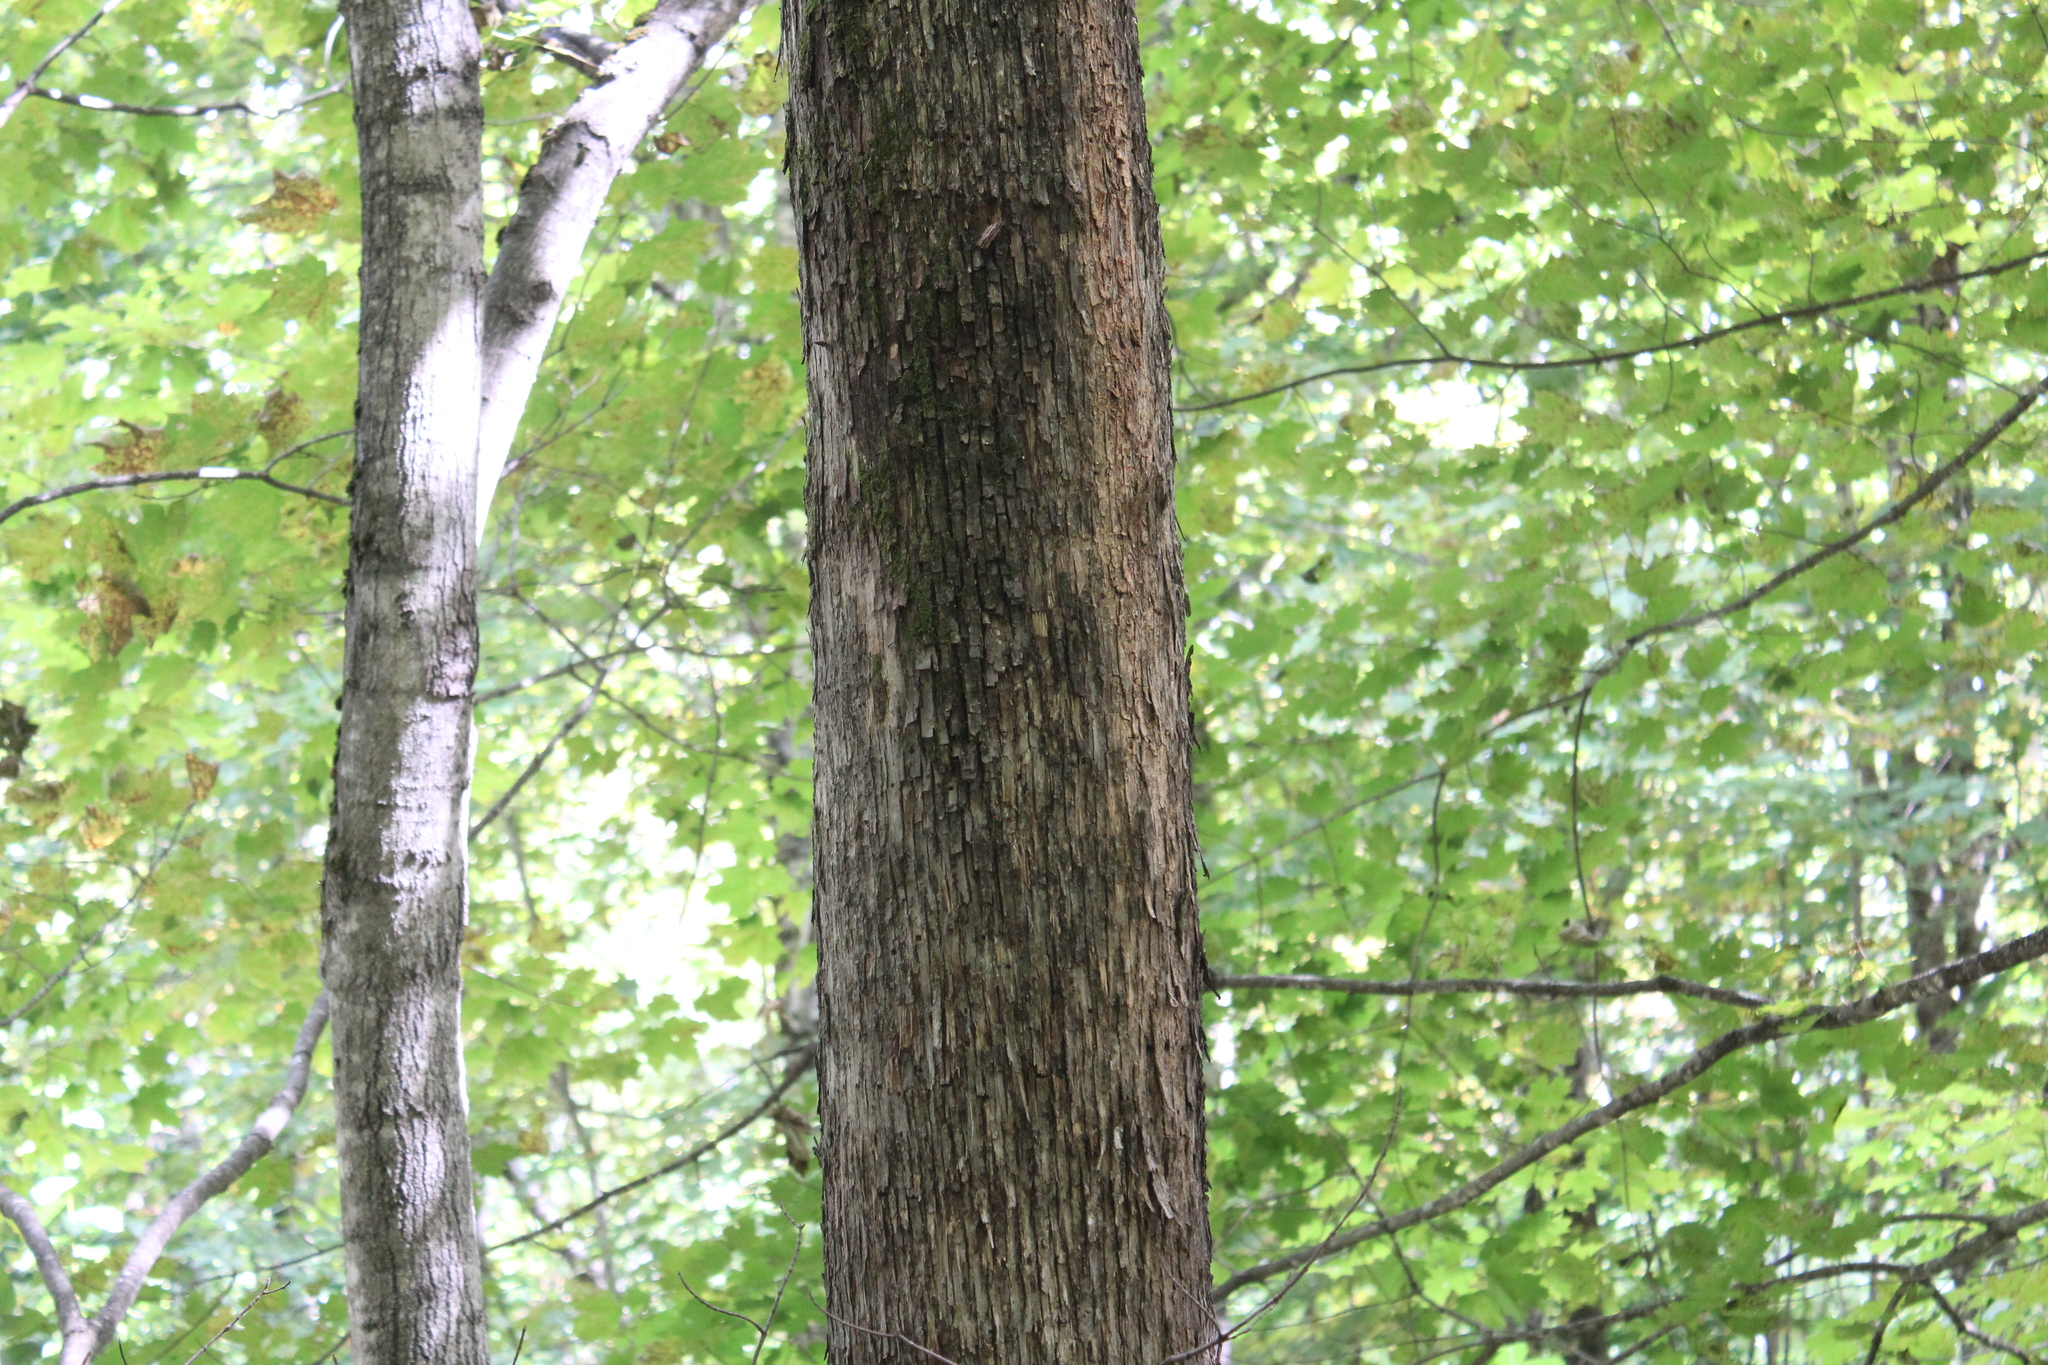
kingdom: Plantae
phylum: Tracheophyta
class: Magnoliopsida
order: Fagales
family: Betulaceae
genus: Ostrya
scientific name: Ostrya virginiana
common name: Ironwood
